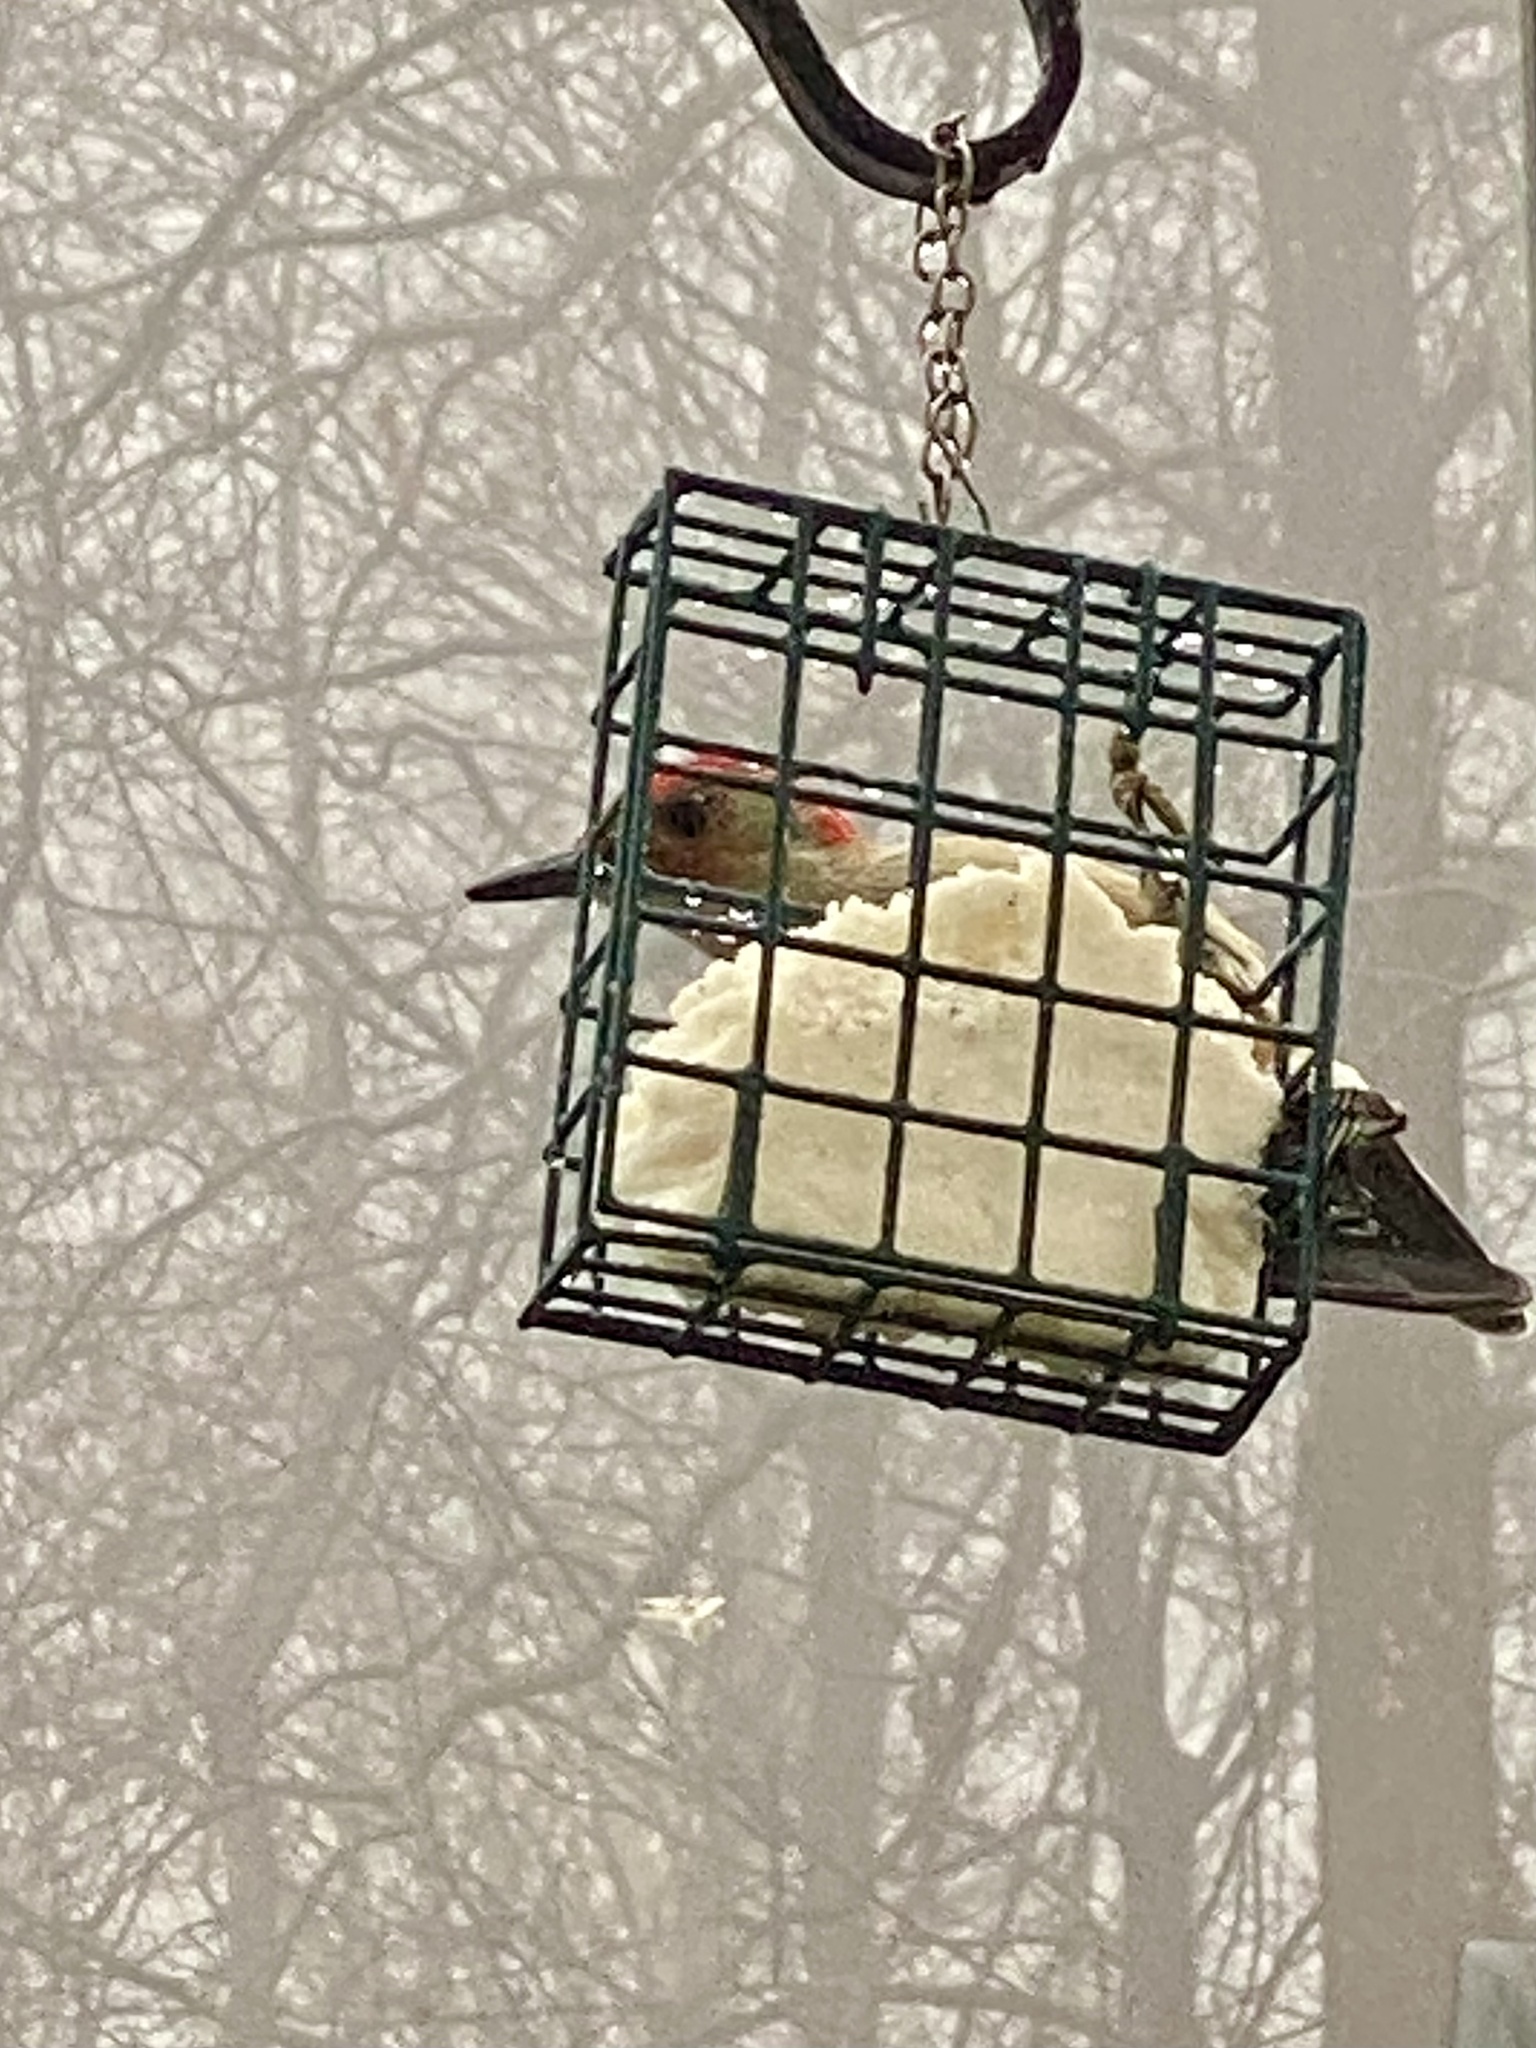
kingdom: Animalia
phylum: Chordata
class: Aves
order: Piciformes
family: Picidae
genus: Melanerpes
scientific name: Melanerpes carolinus
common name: Red-bellied woodpecker
